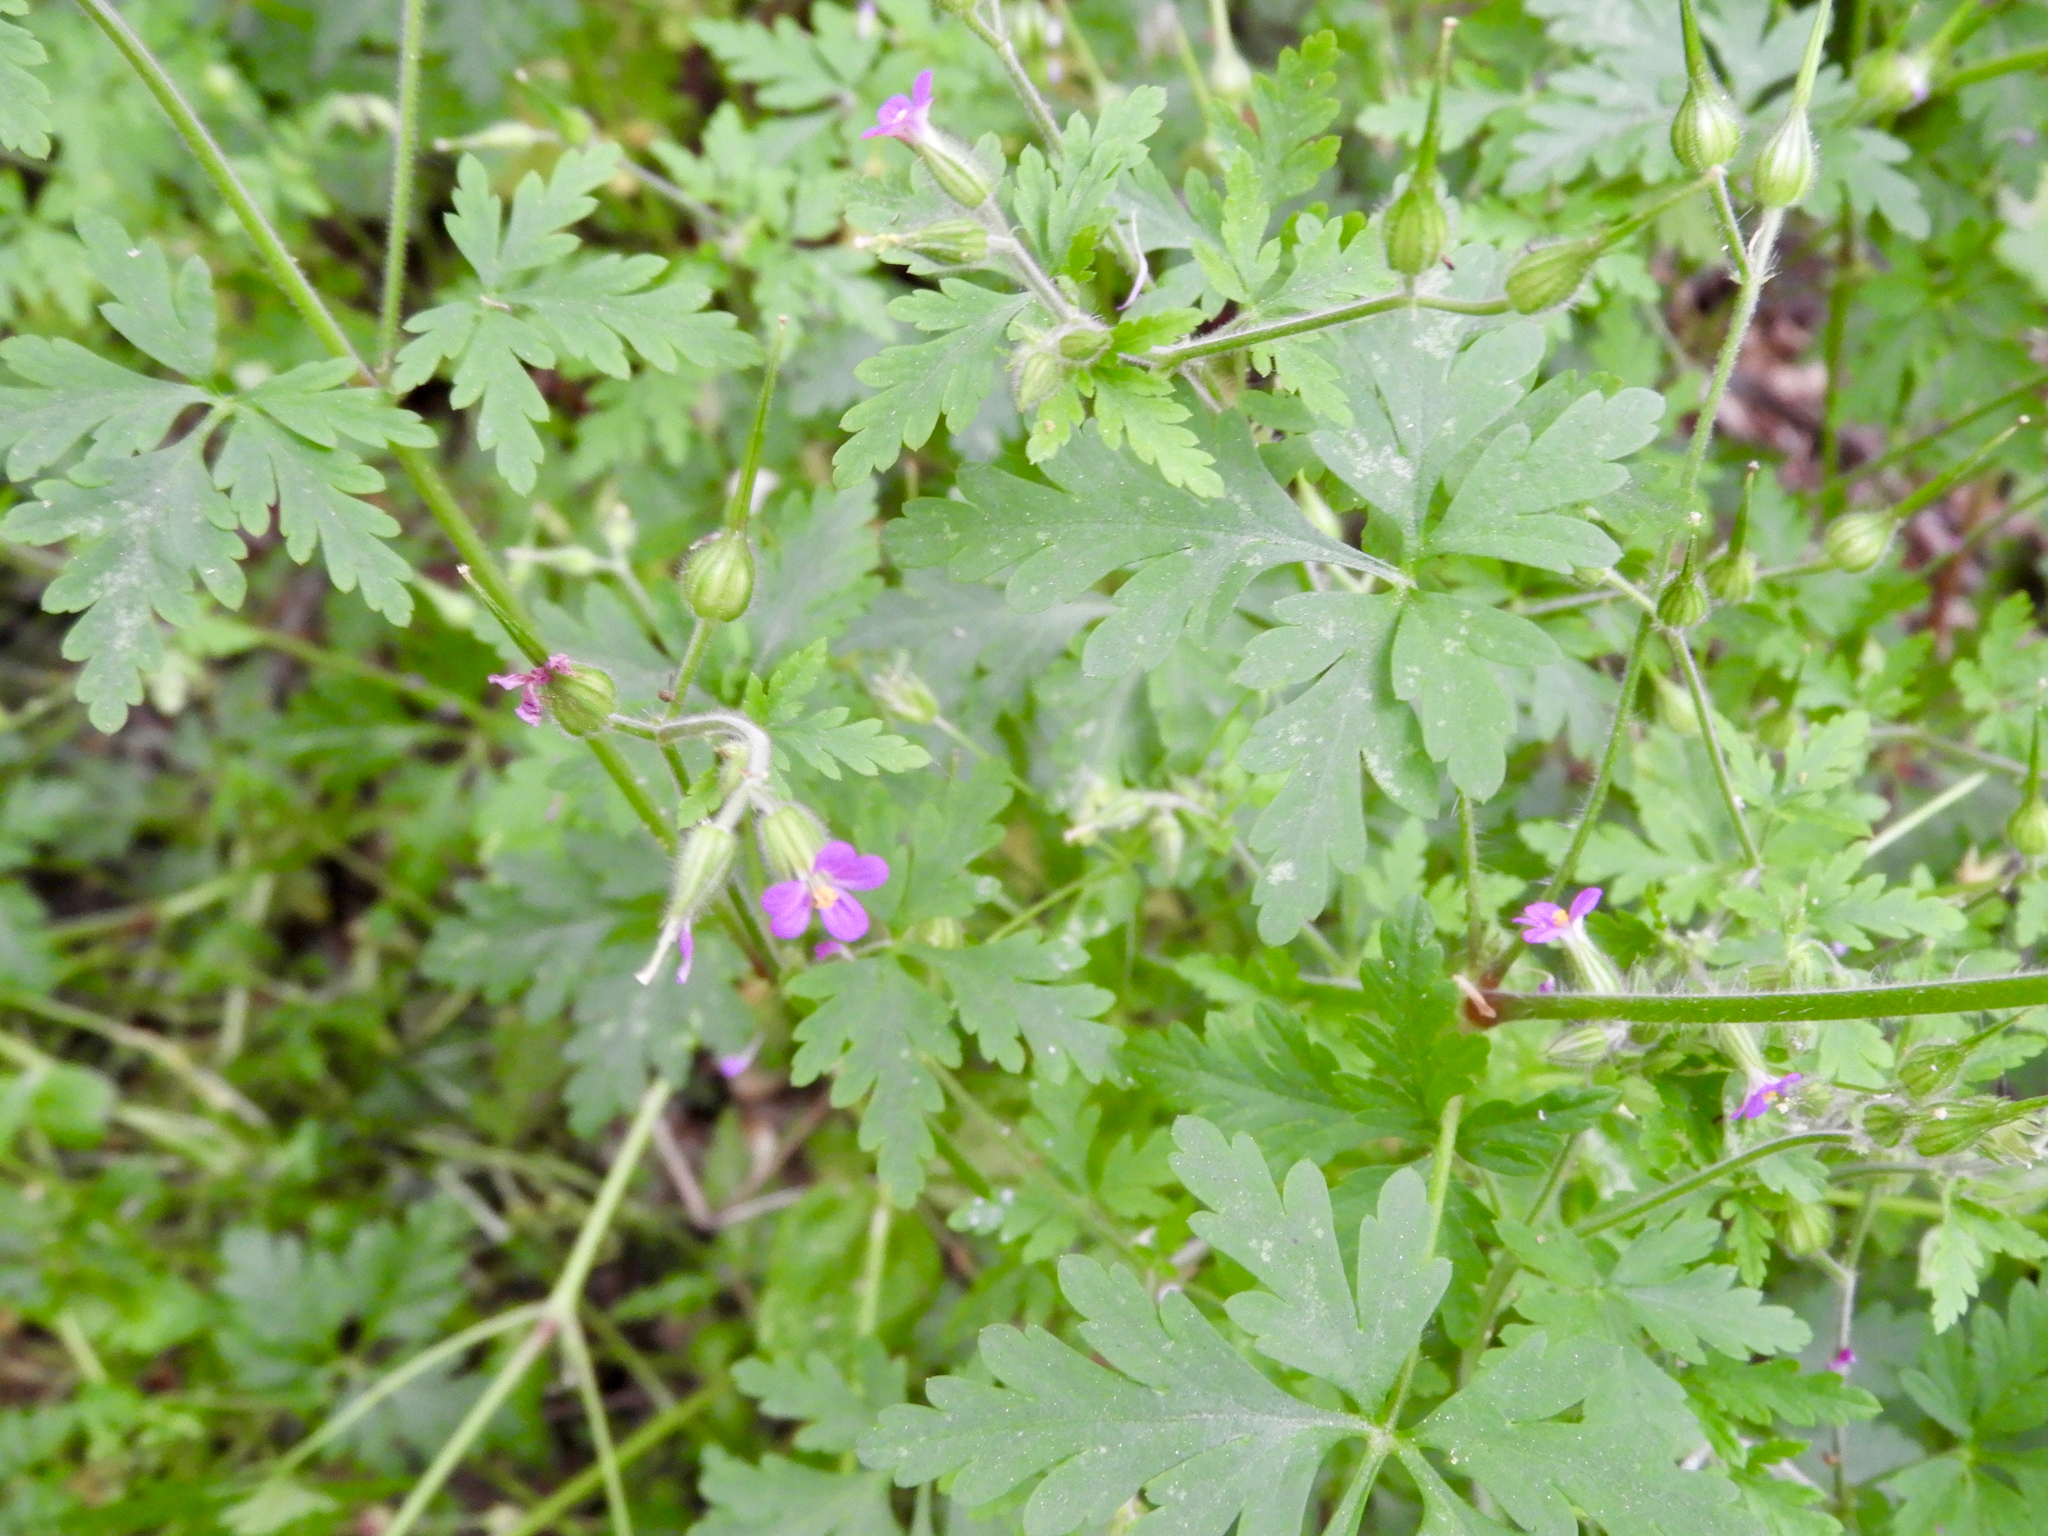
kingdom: Plantae
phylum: Tracheophyta
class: Magnoliopsida
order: Geraniales
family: Geraniaceae
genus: Geranium
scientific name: Geranium purpureum
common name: Little-robin
